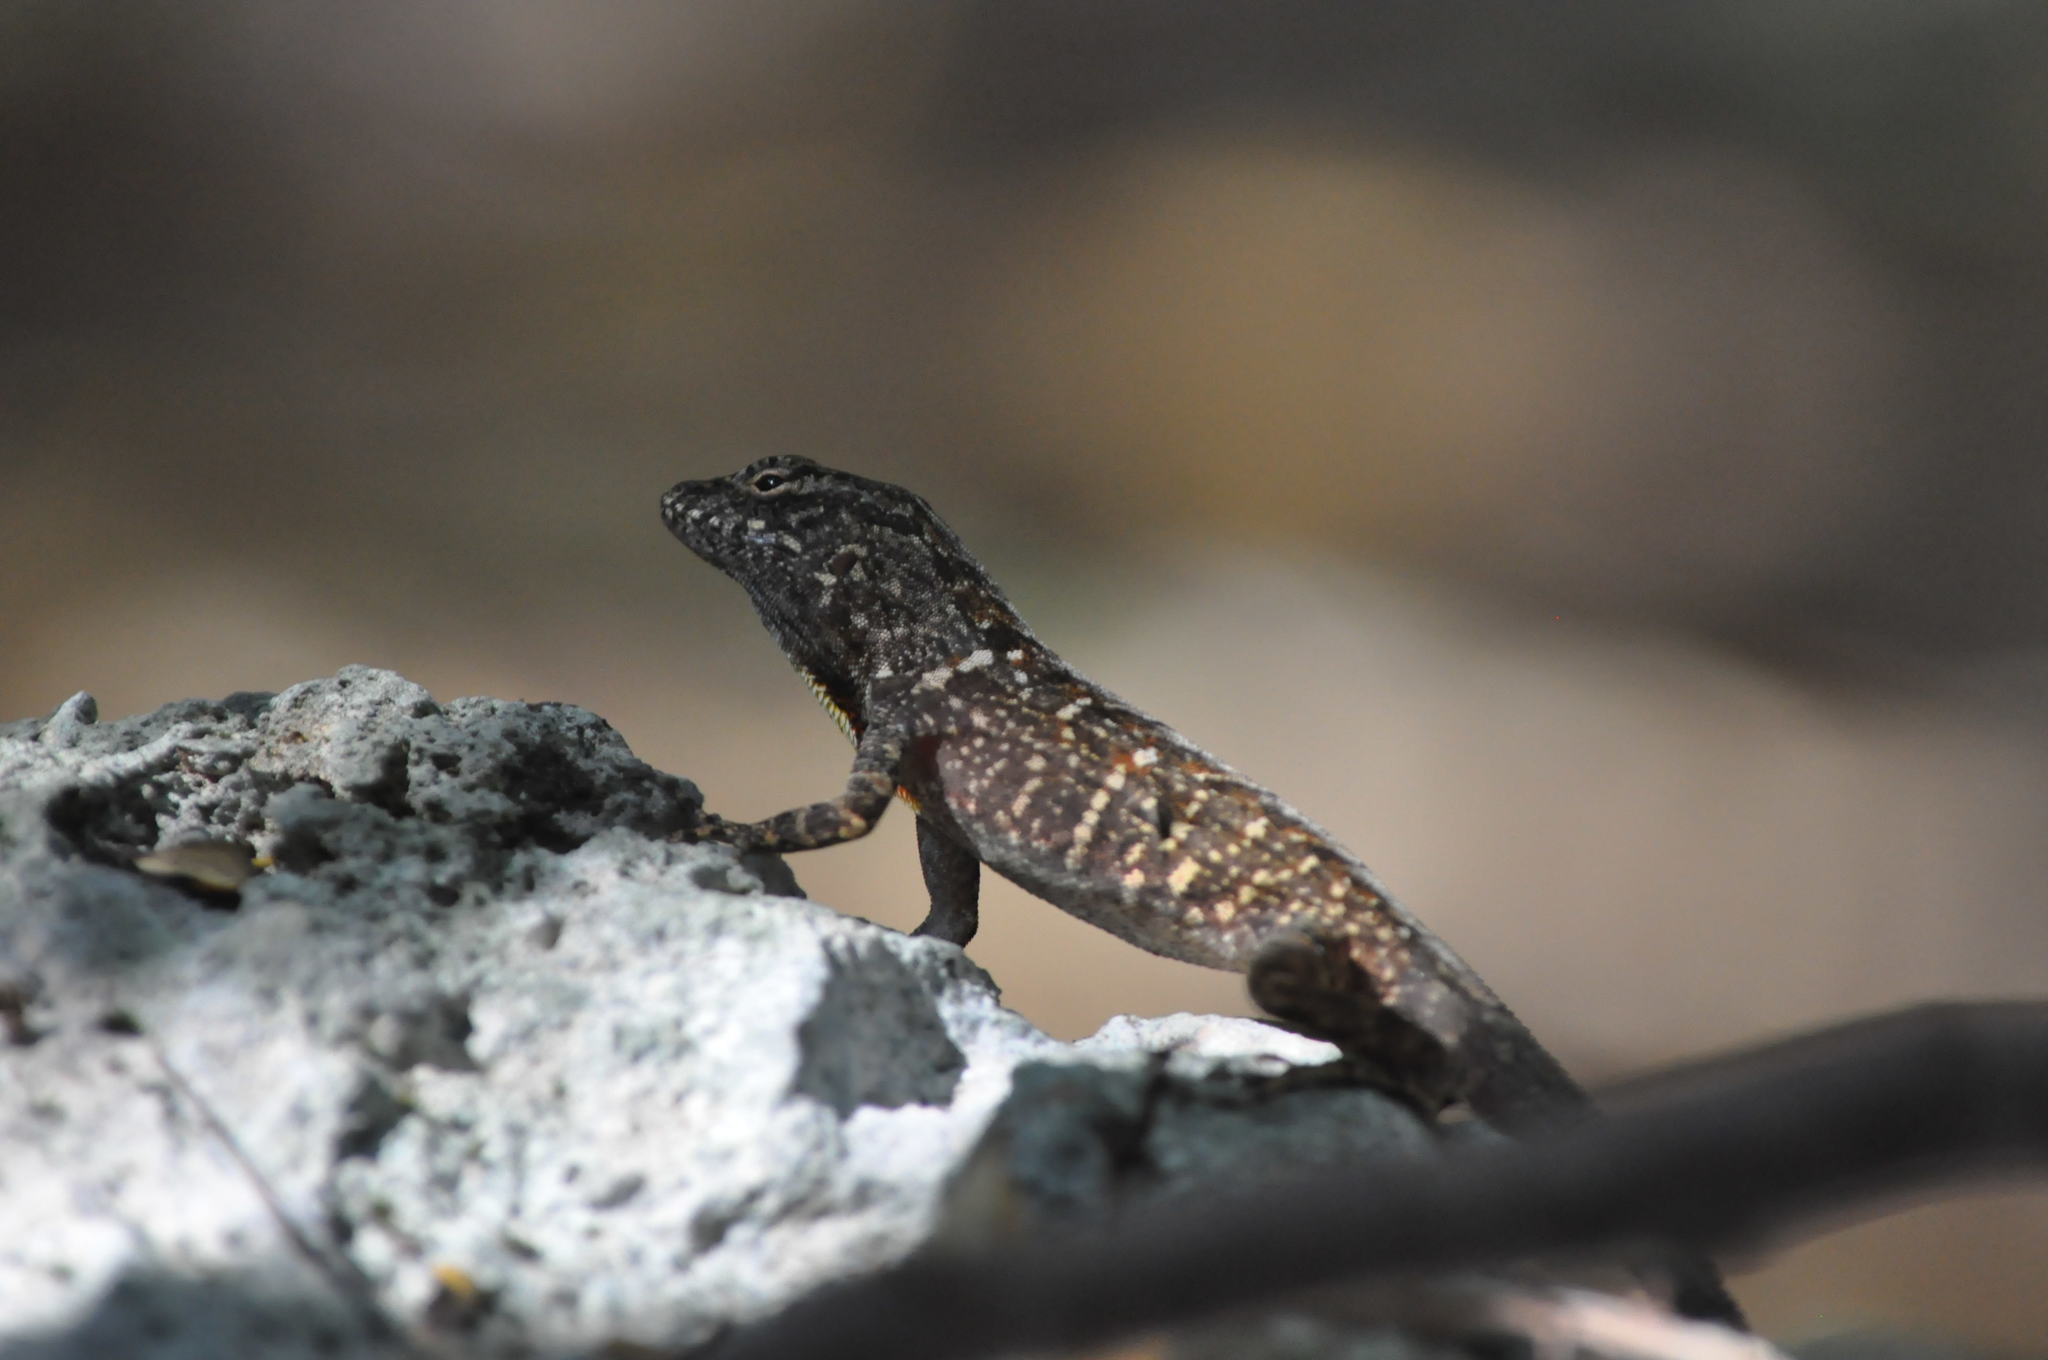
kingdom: Animalia
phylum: Chordata
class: Squamata
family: Dactyloidae
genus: Anolis
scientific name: Anolis sagrei
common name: Brown anole
